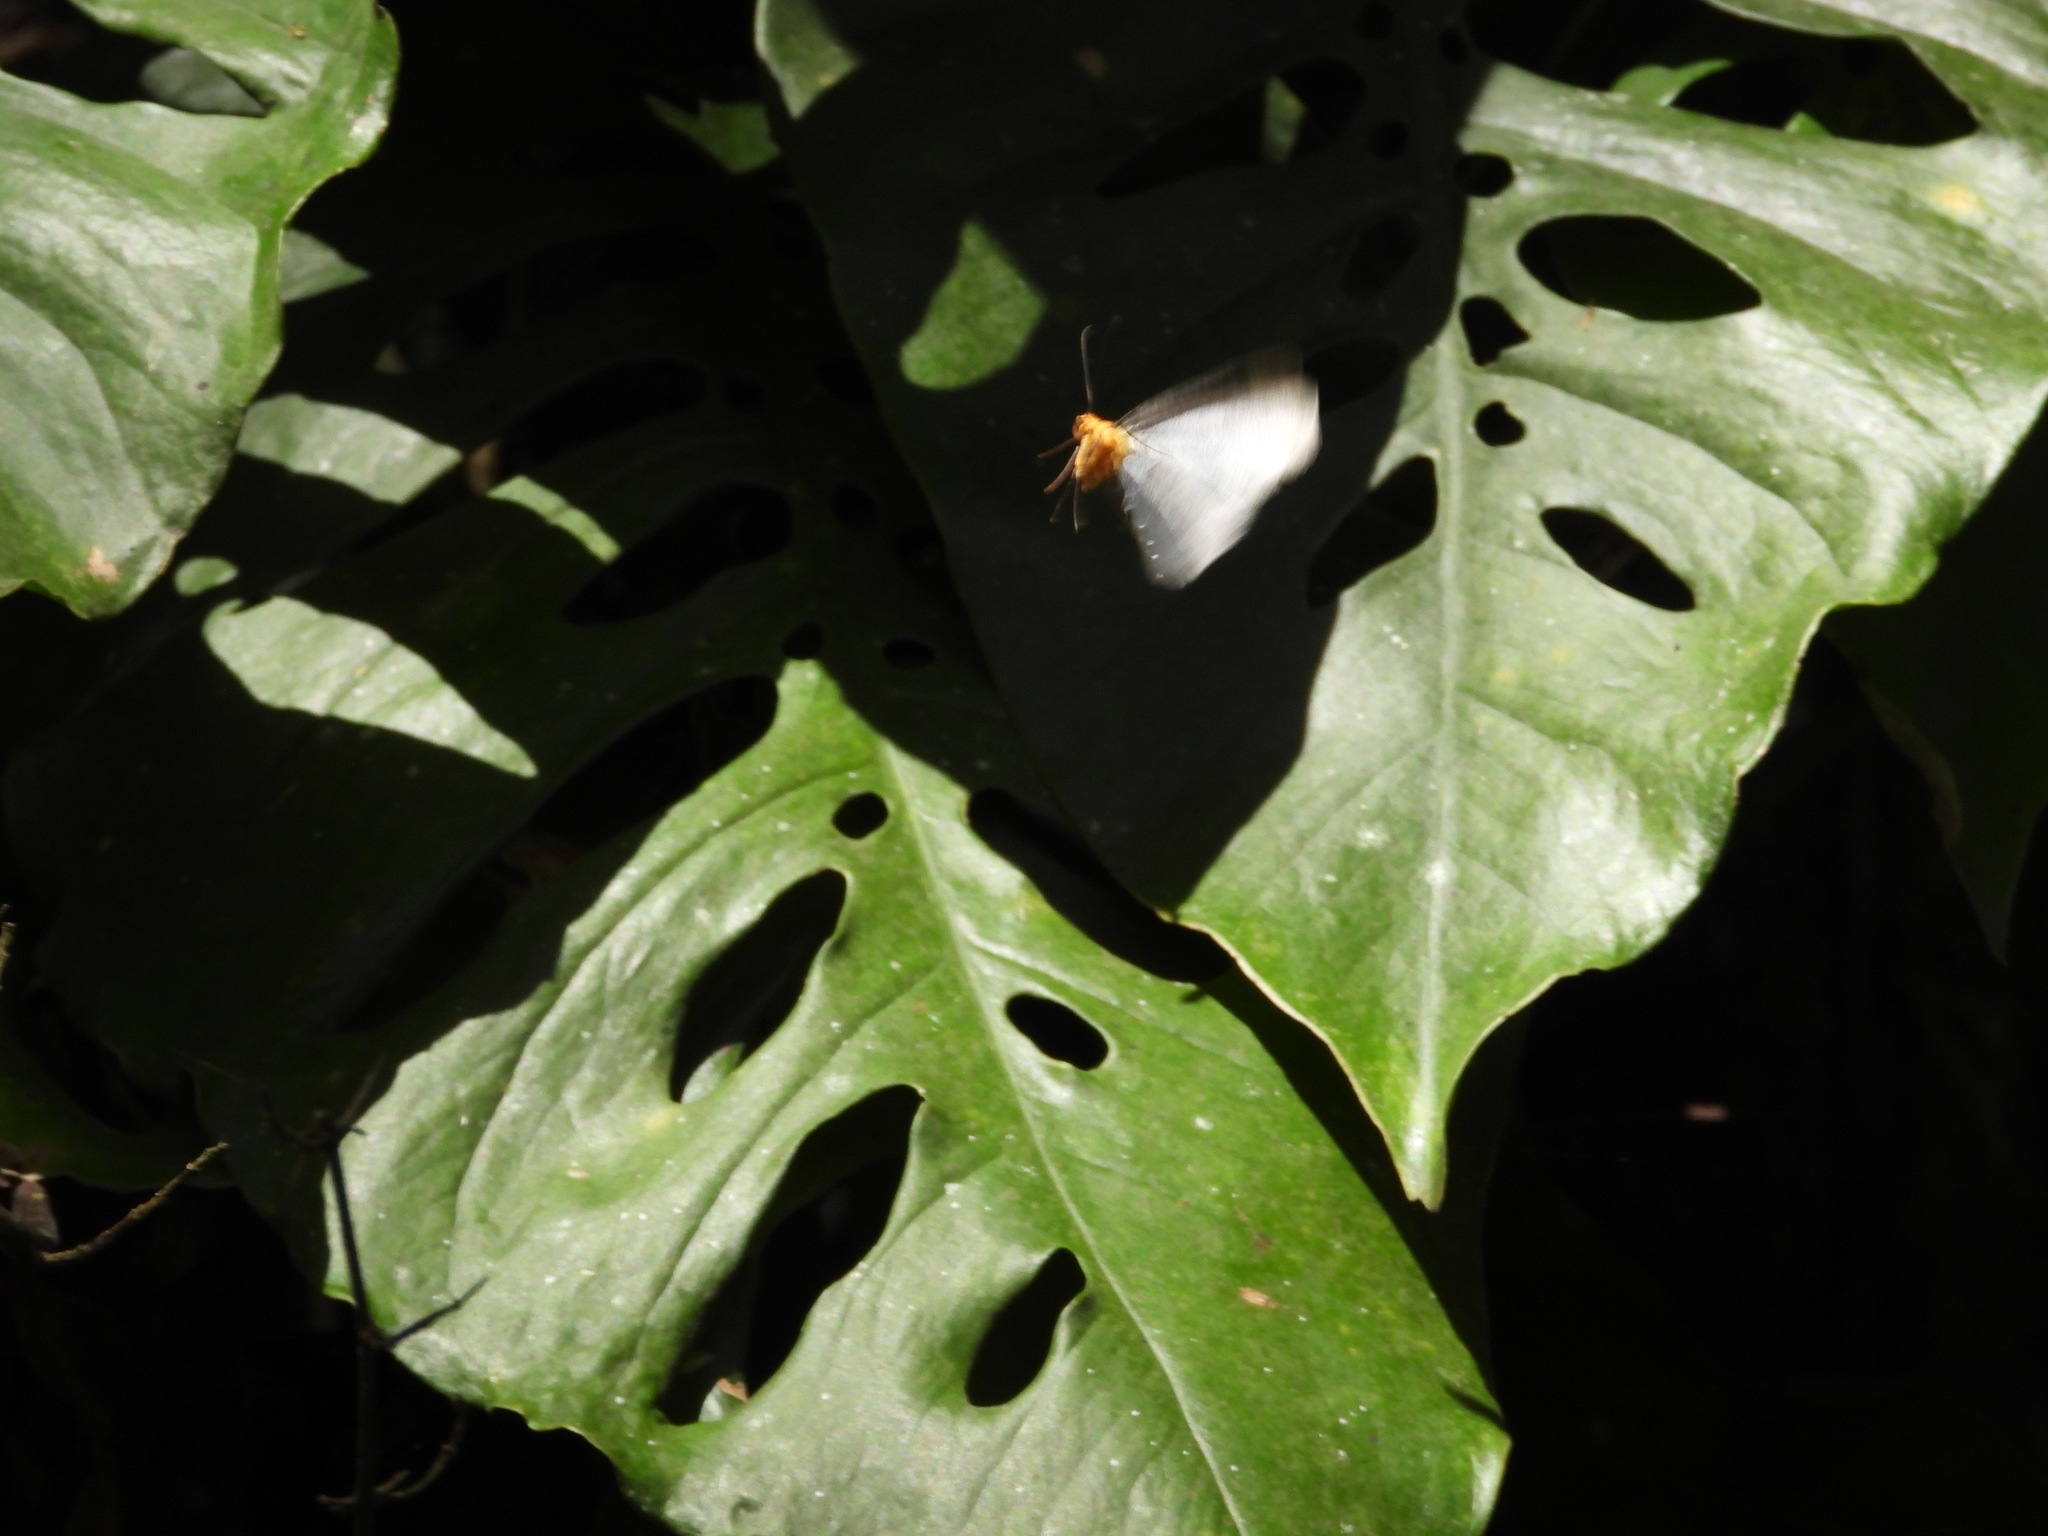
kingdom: Animalia
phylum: Arthropoda
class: Insecta
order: Lepidoptera
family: Geometridae
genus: Simena
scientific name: Simena
